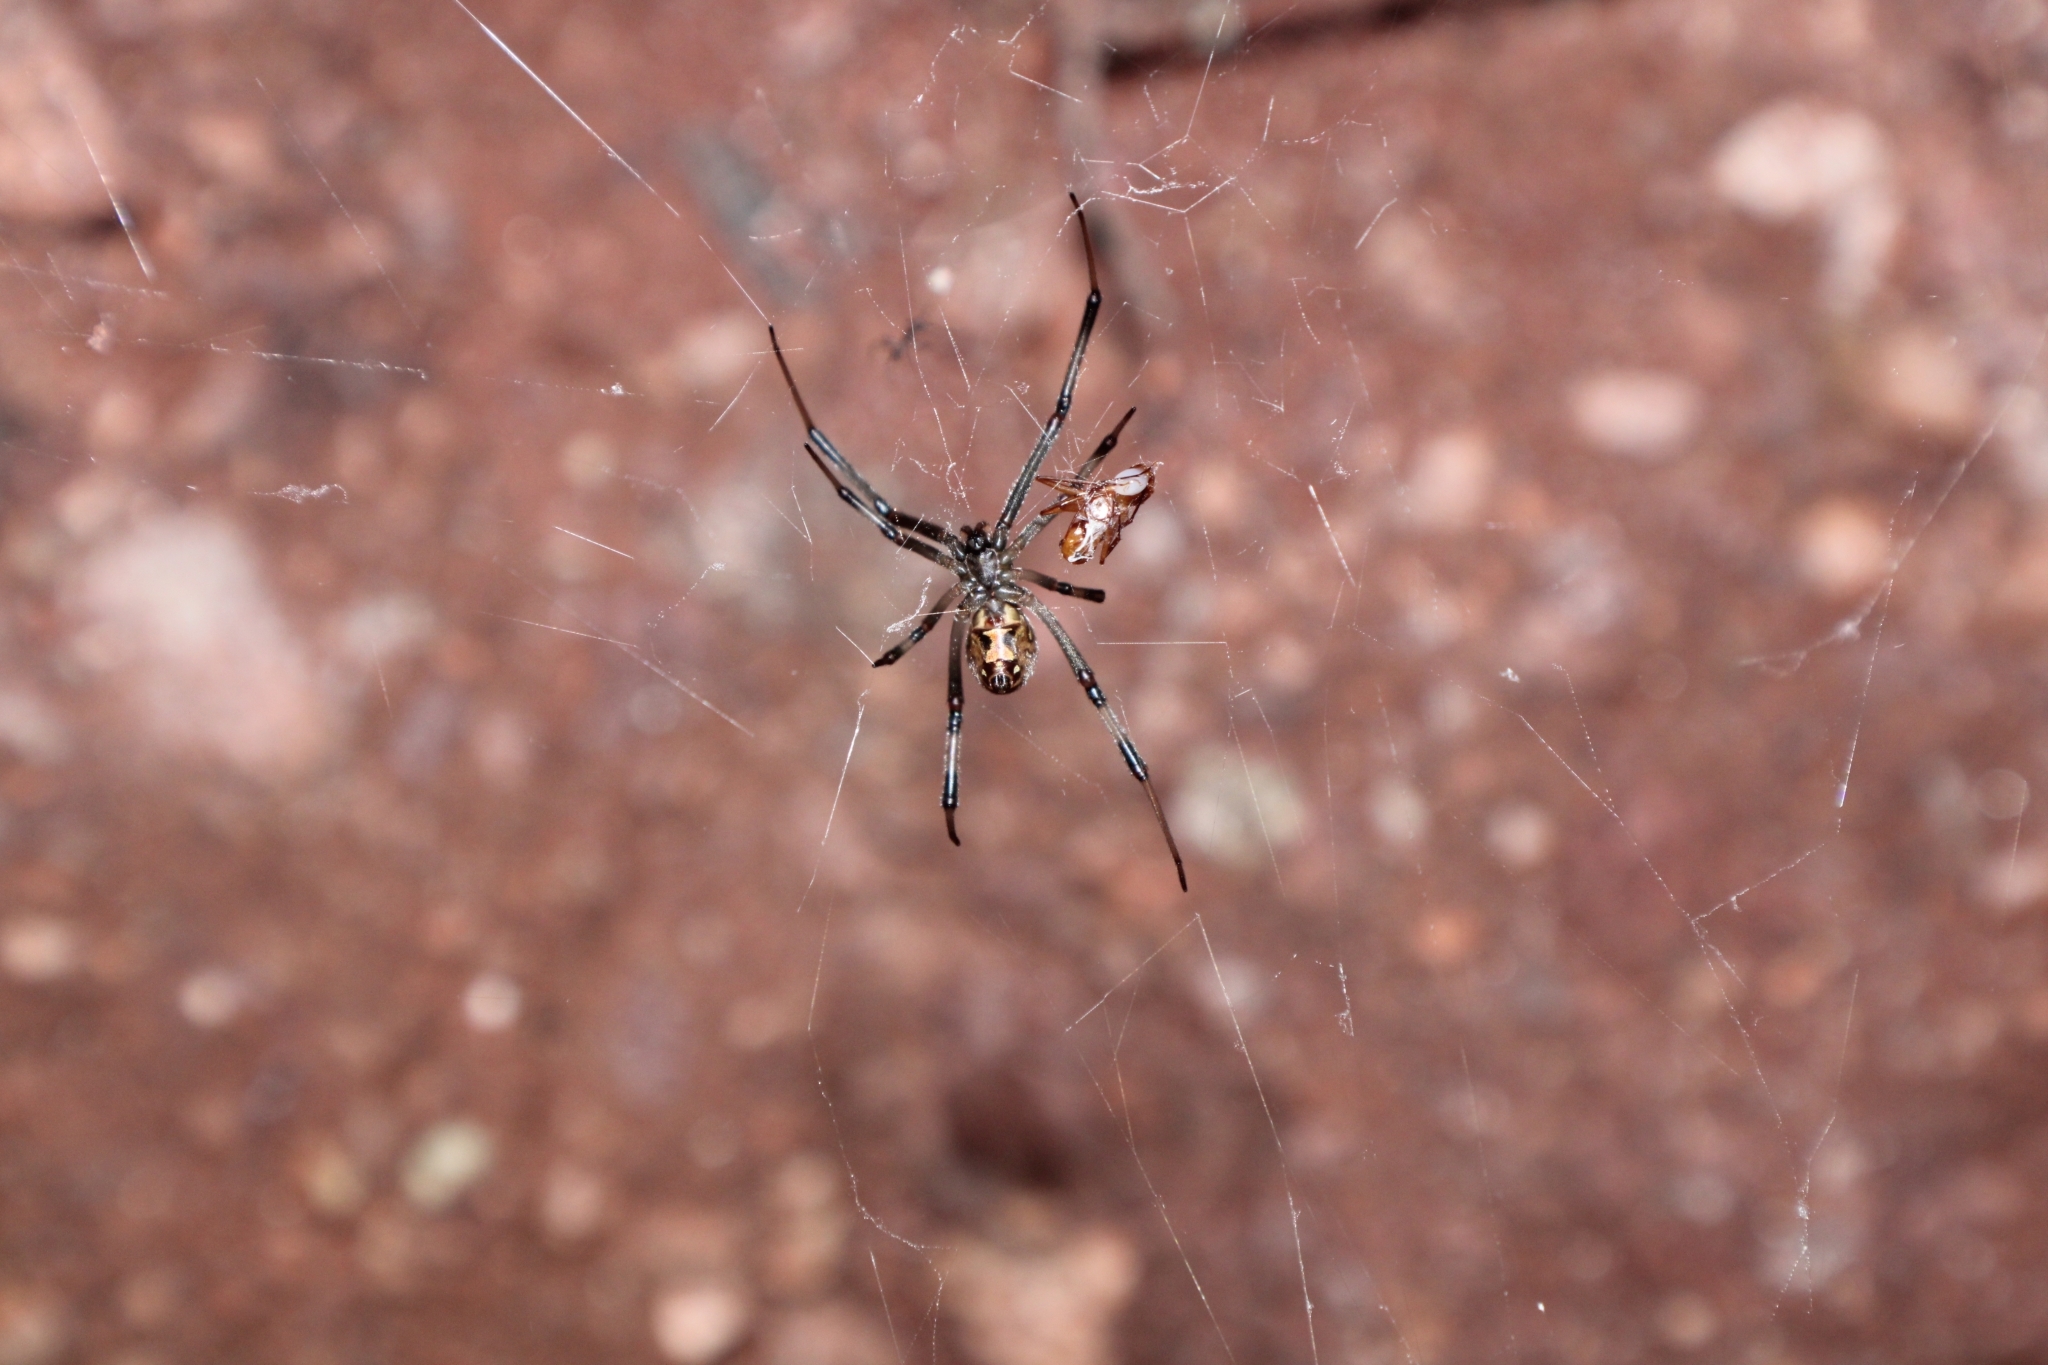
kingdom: Animalia
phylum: Arthropoda
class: Arachnida
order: Araneae
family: Theridiidae
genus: Latrodectus
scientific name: Latrodectus geometricus
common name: Brown widow spider
